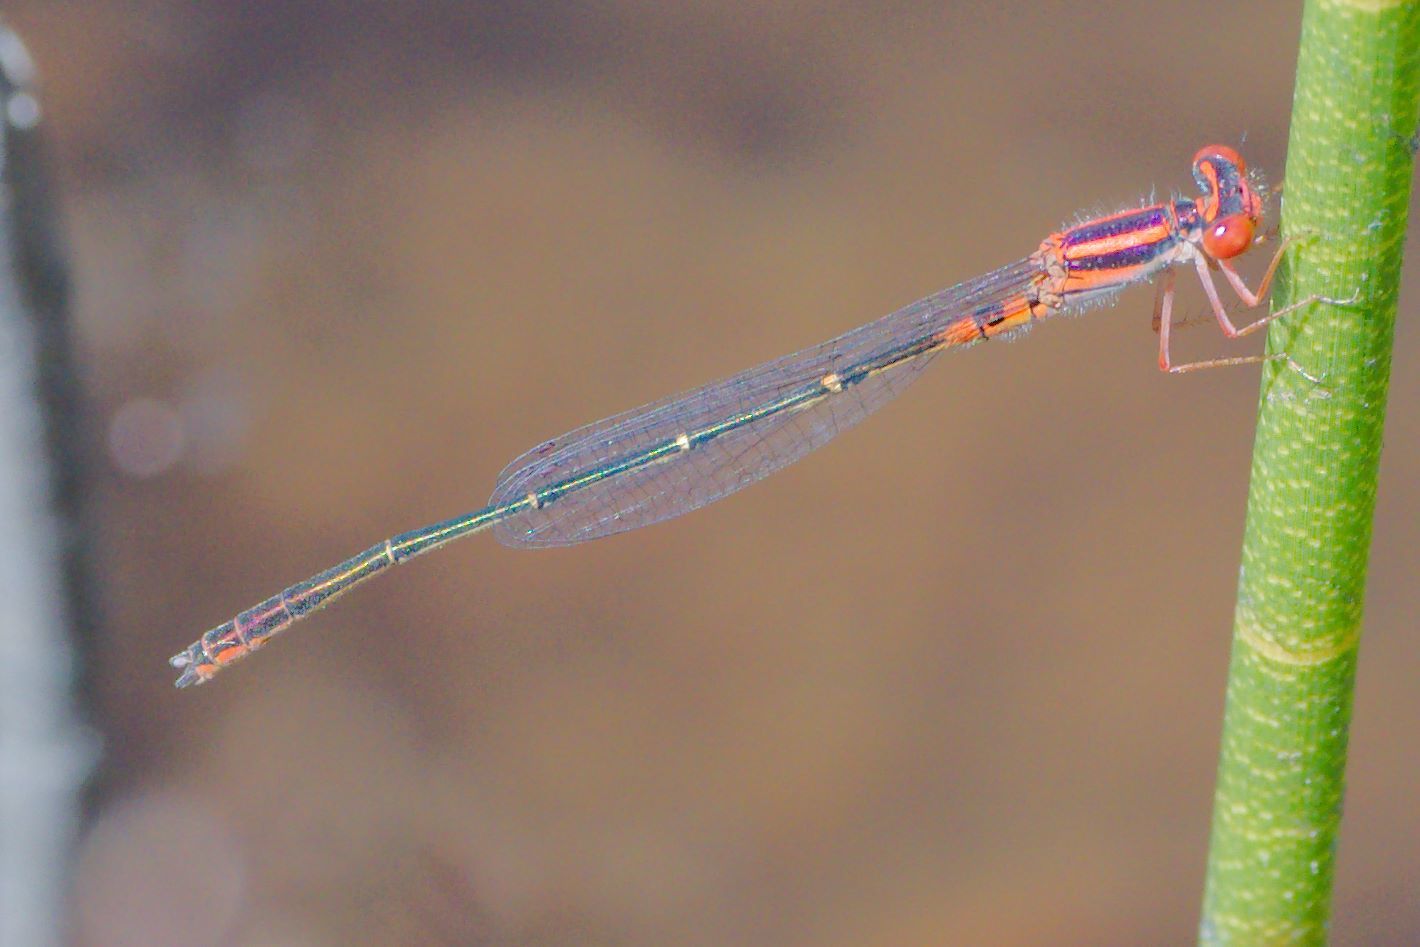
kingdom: Animalia
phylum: Arthropoda
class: Insecta
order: Odonata
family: Coenagrionidae
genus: Enallagma
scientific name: Enallagma concisum
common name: Cherry bluet
